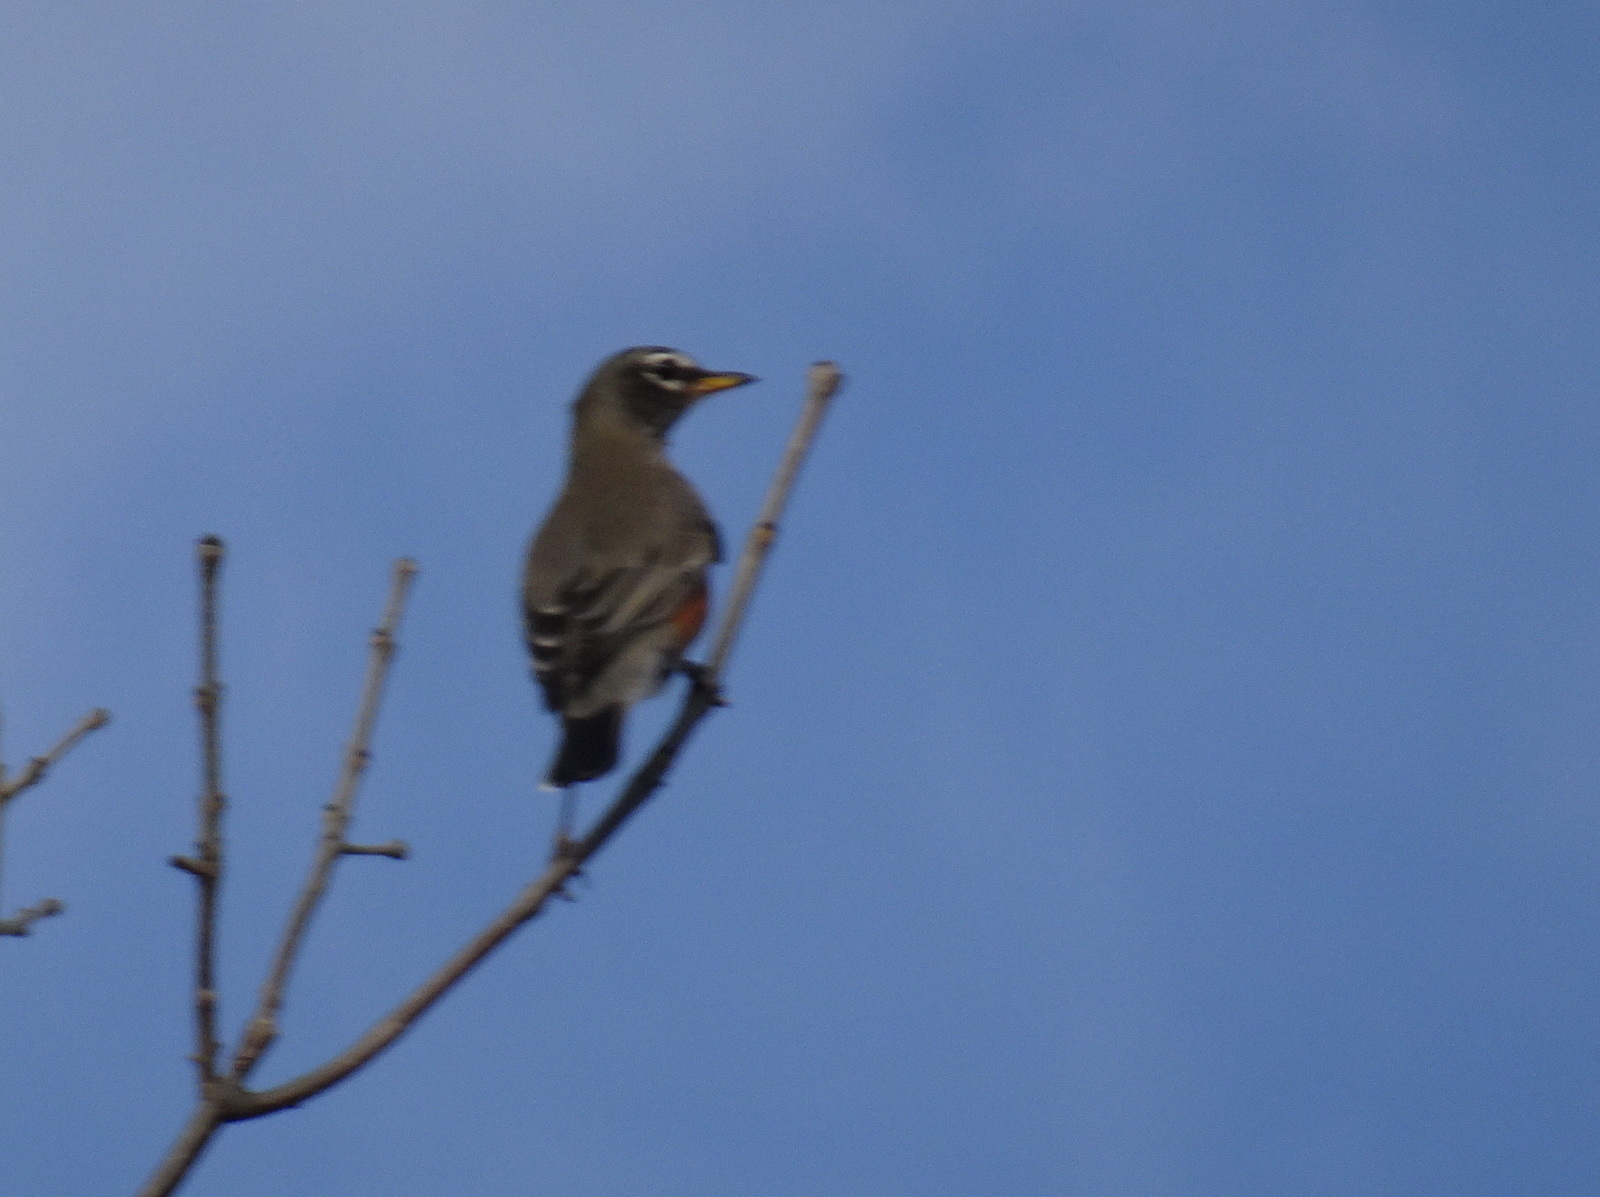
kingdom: Animalia
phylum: Chordata
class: Aves
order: Passeriformes
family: Turdidae
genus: Turdus
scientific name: Turdus migratorius
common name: American robin
